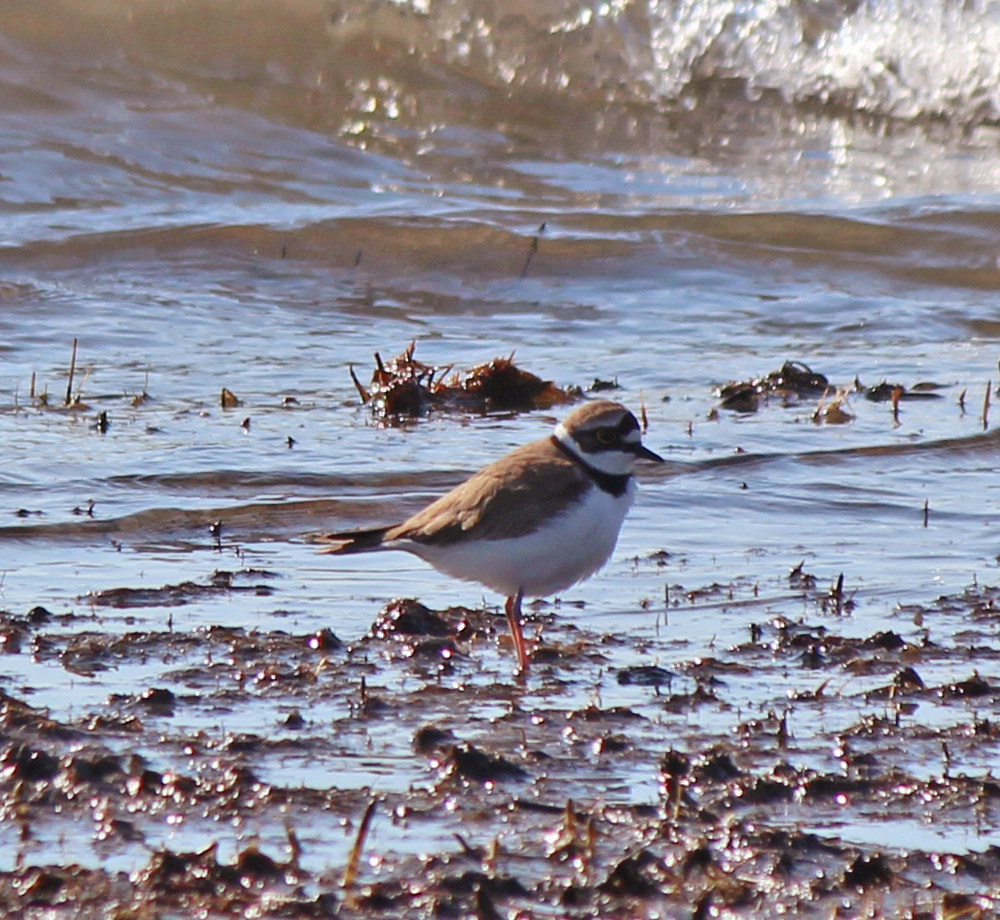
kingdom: Animalia
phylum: Chordata
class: Aves
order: Charadriiformes
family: Charadriidae
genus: Charadrius
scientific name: Charadrius dubius
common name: Little ringed plover
